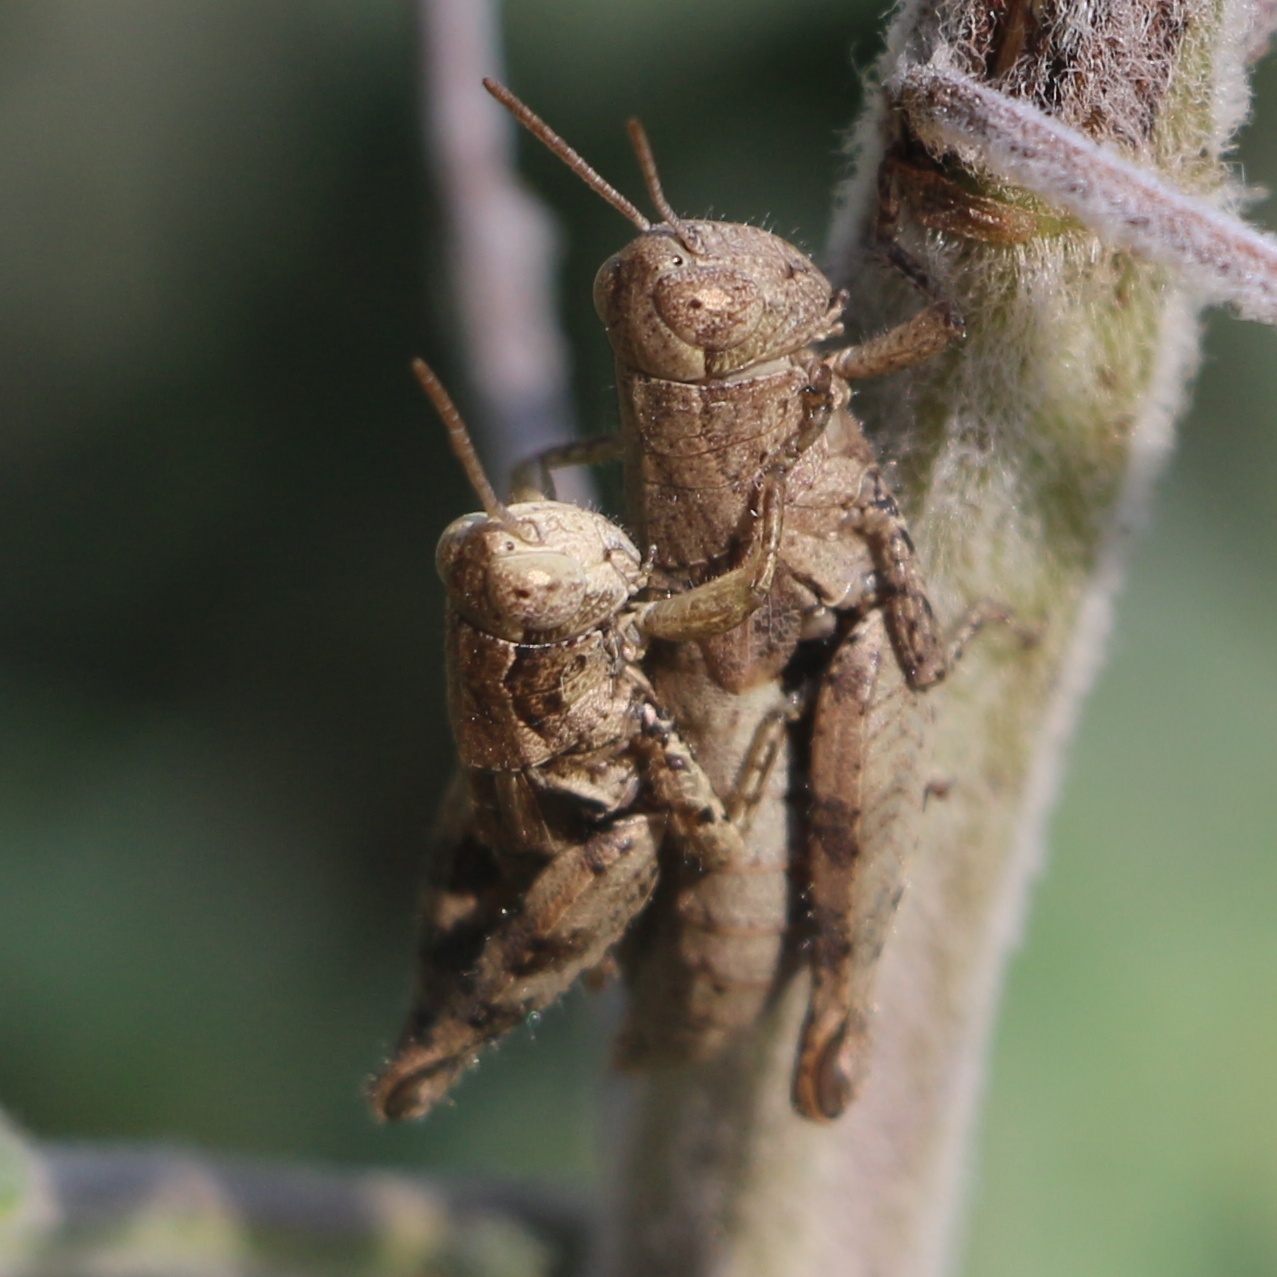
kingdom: Animalia
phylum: Arthropoda
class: Insecta
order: Orthoptera
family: Acrididae
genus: Pezotettix
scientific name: Pezotettix giornae
